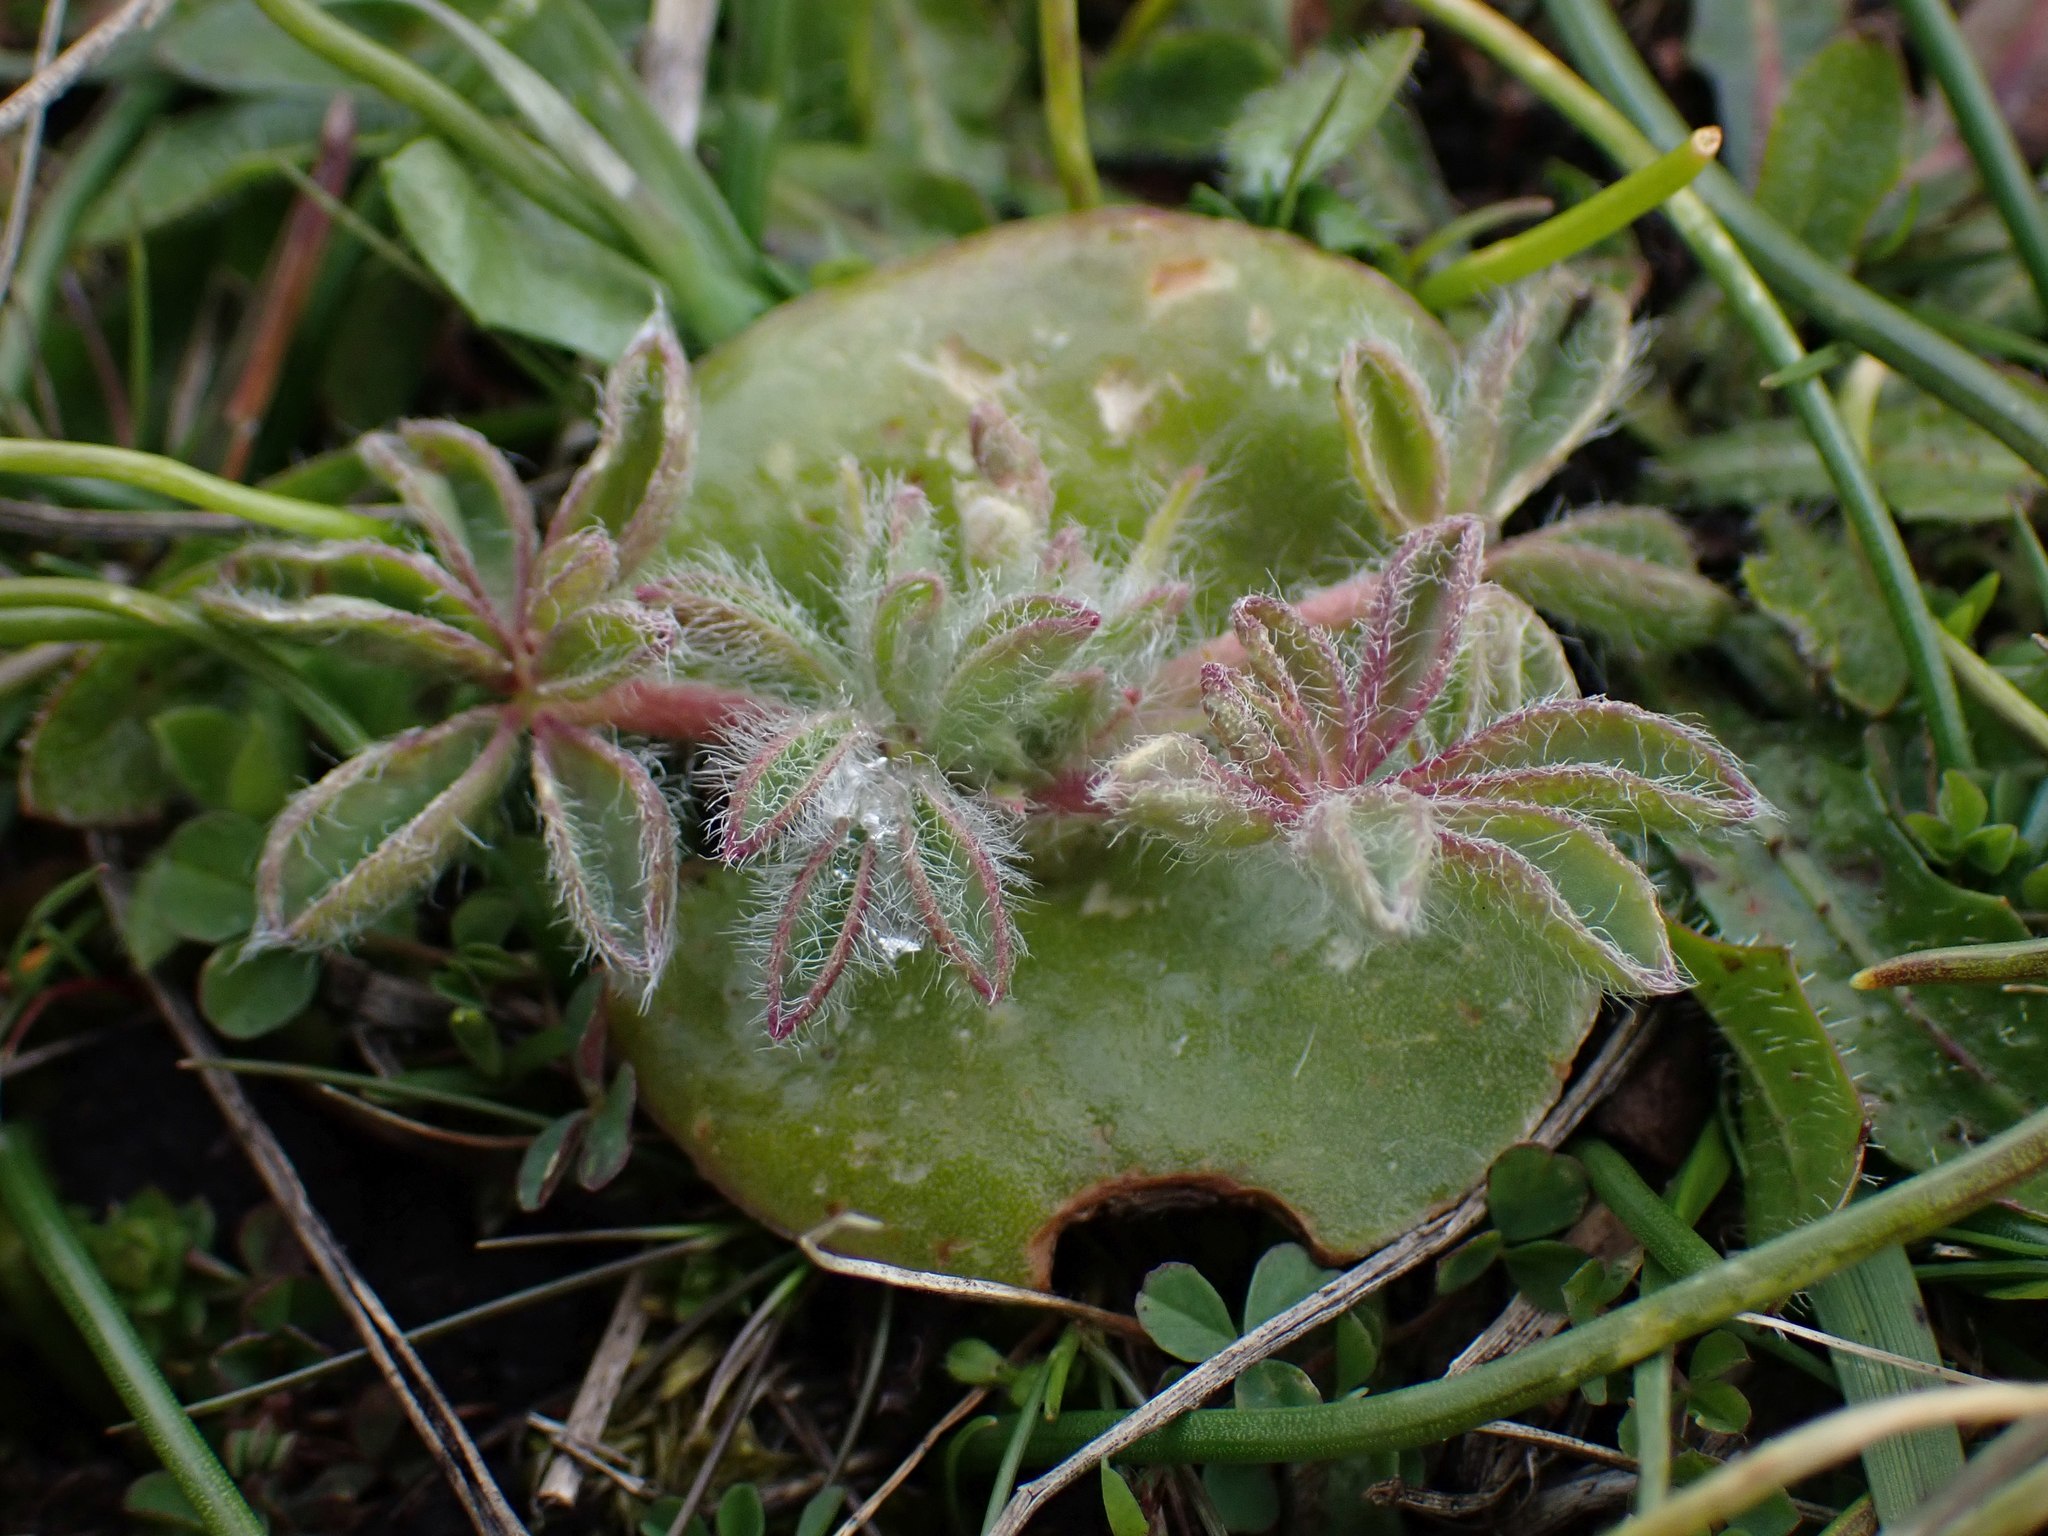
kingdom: Plantae
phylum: Tracheophyta
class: Magnoliopsida
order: Fabales
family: Fabaceae
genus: Lupinus
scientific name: Lupinus densiflorus
